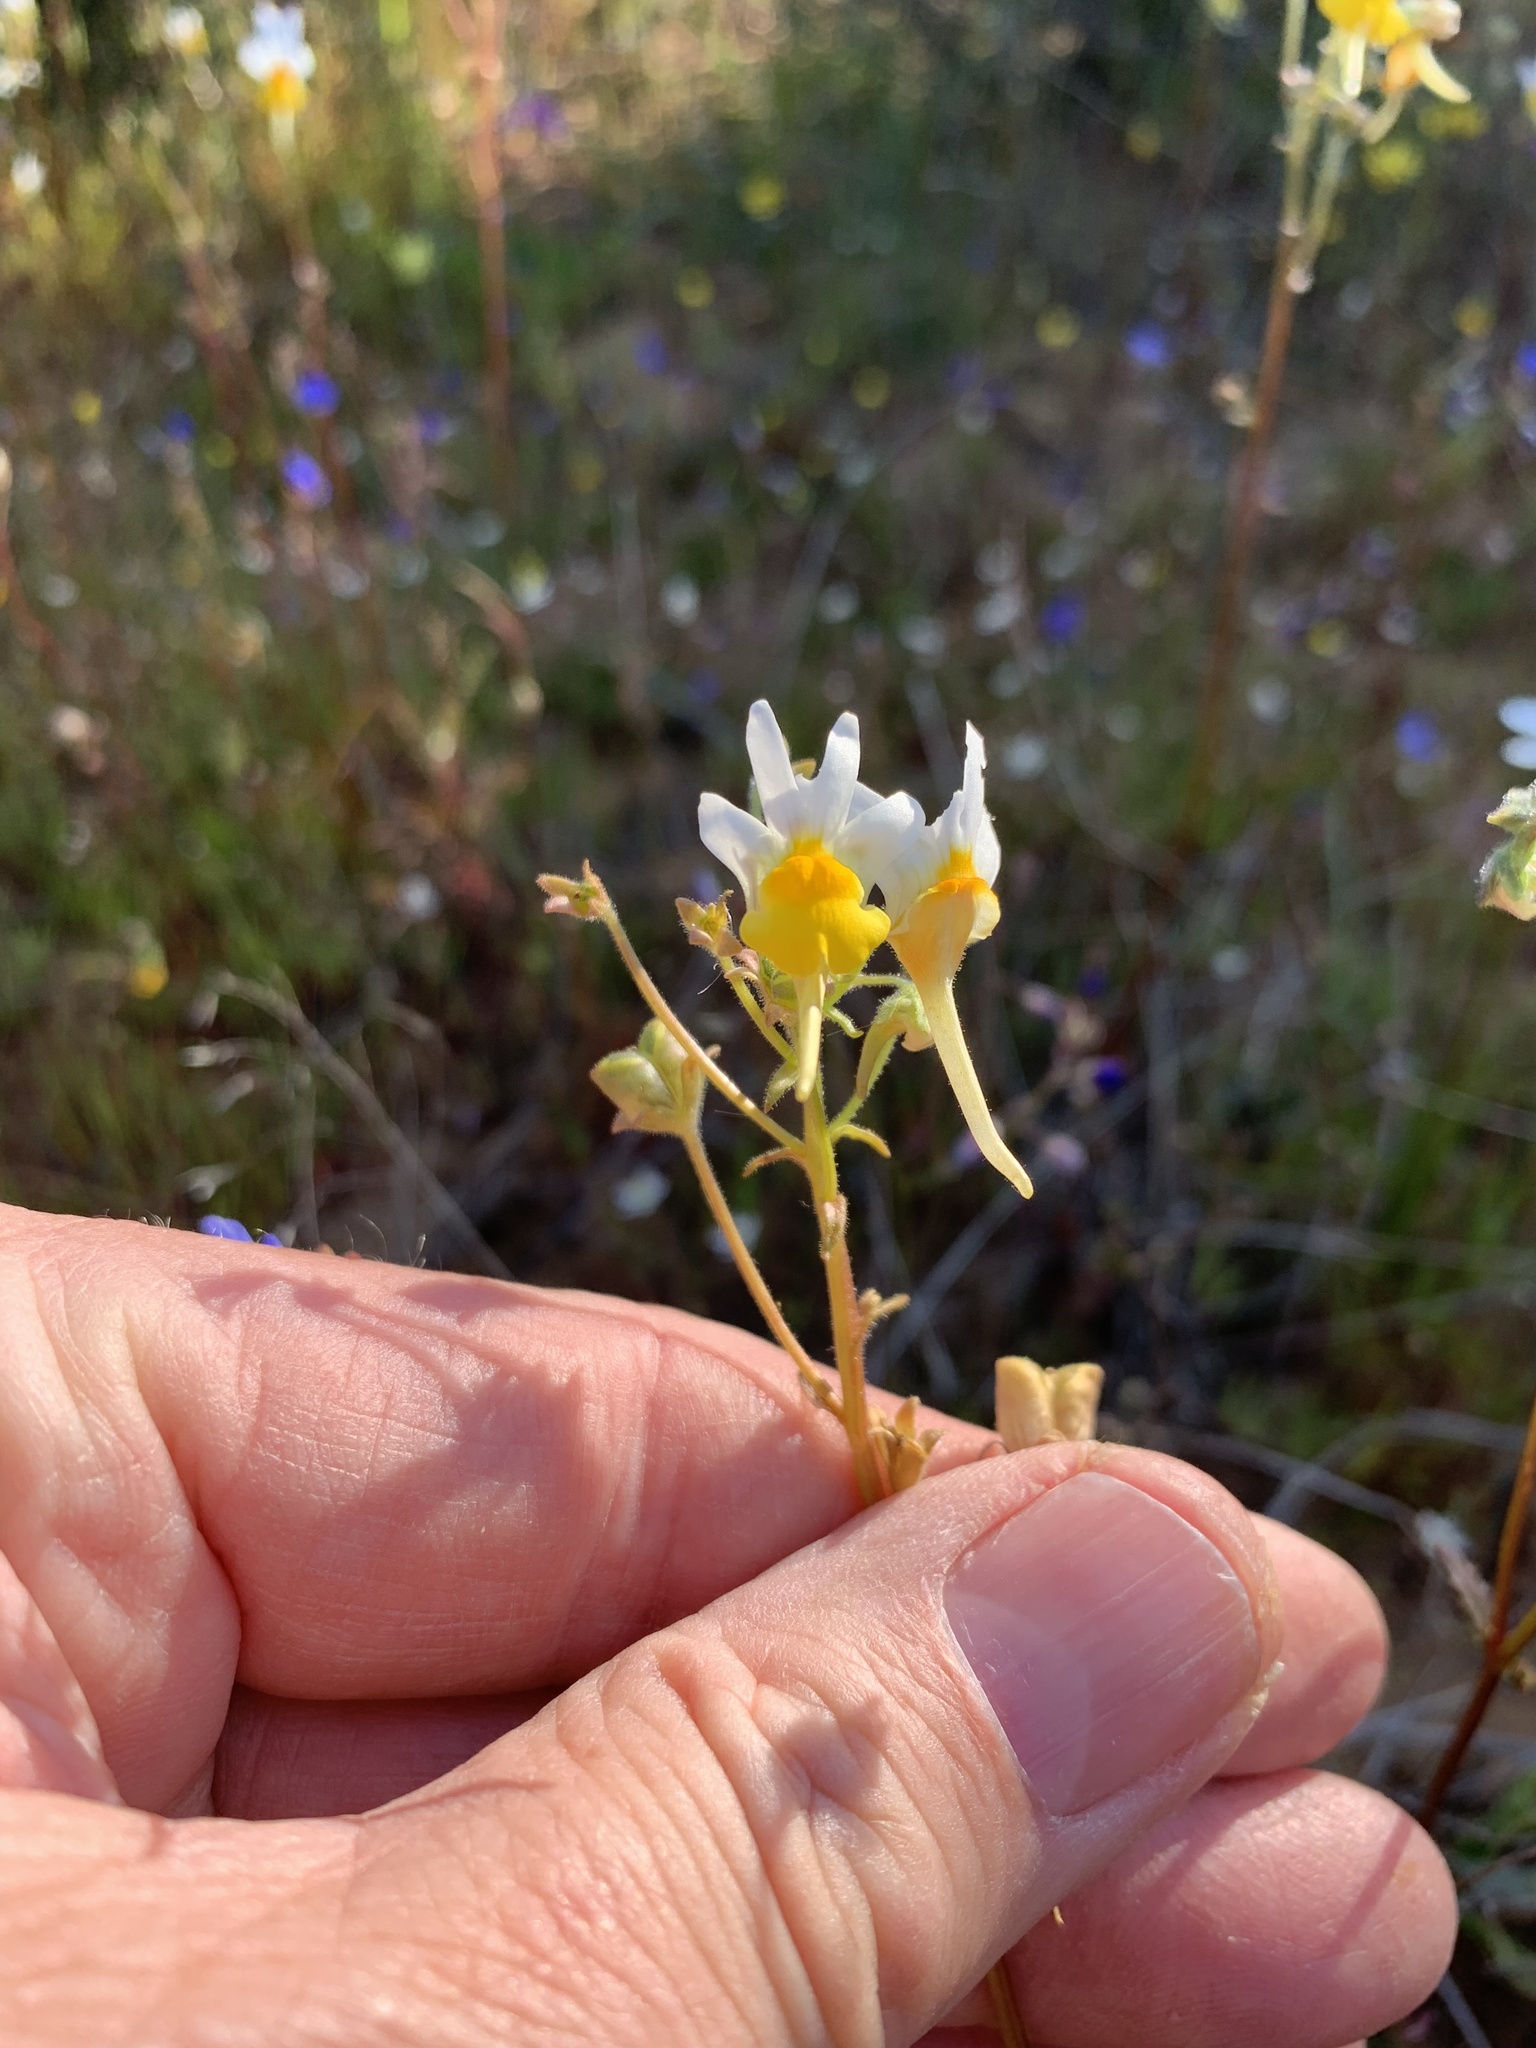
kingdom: Plantae
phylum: Tracheophyta
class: Magnoliopsida
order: Lamiales
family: Scrophulariaceae
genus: Nemesia
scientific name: Nemesia macroceras
